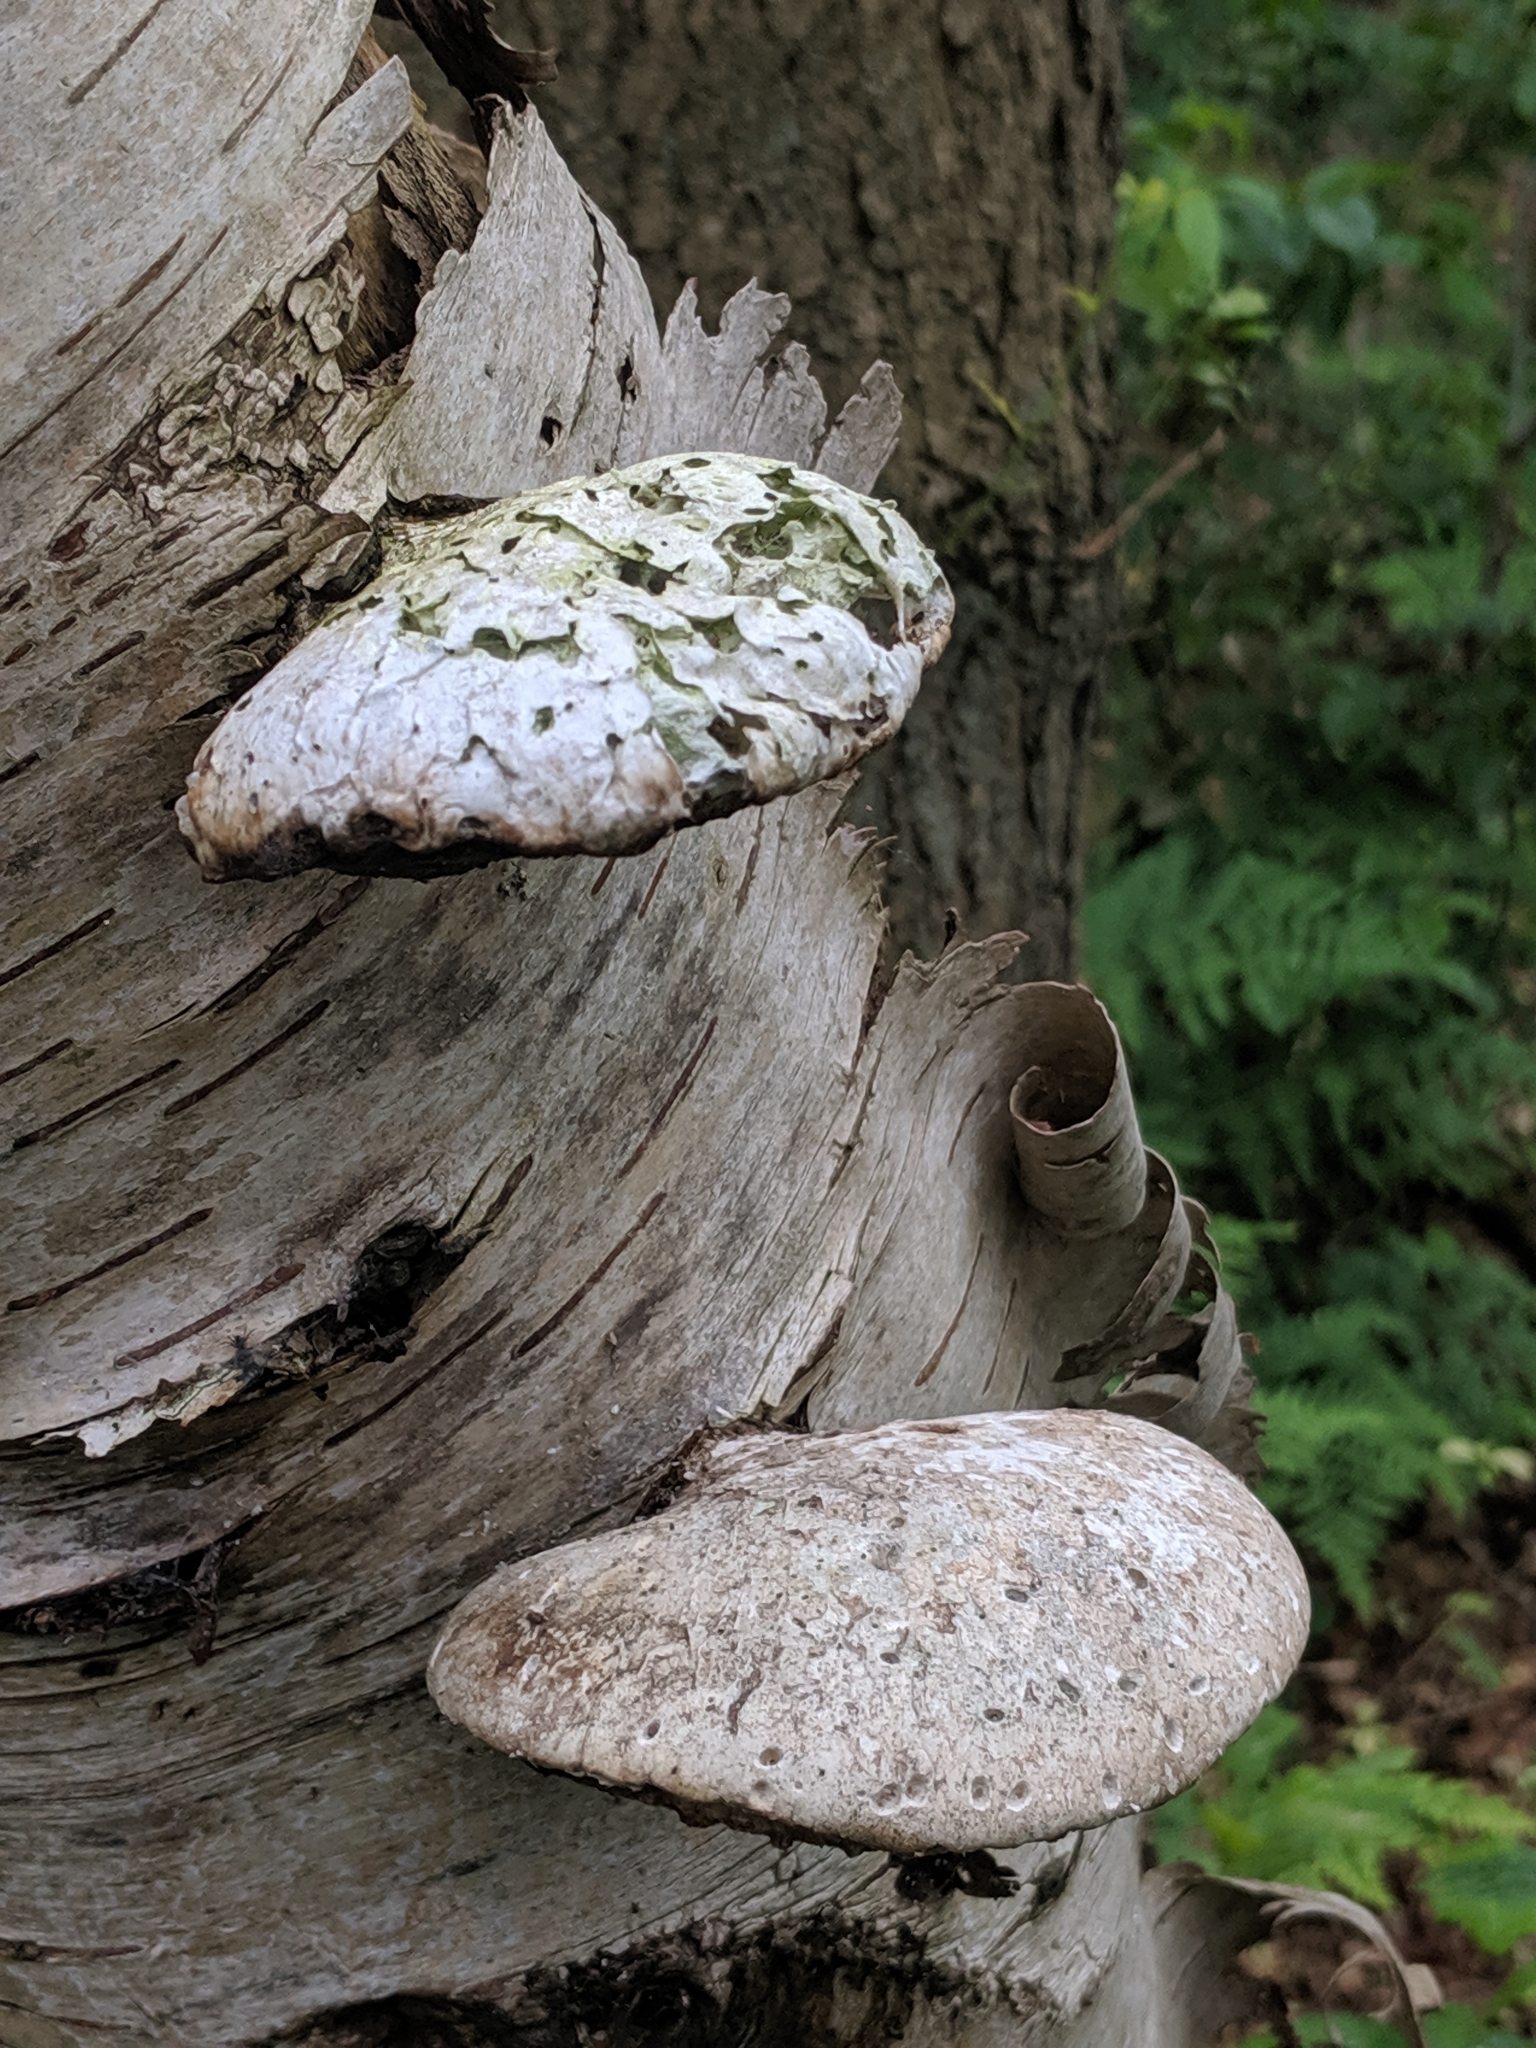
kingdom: Fungi
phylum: Basidiomycota
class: Agaricomycetes
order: Polyporales
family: Fomitopsidaceae
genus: Fomitopsis
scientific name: Fomitopsis betulina
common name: Birch polypore
